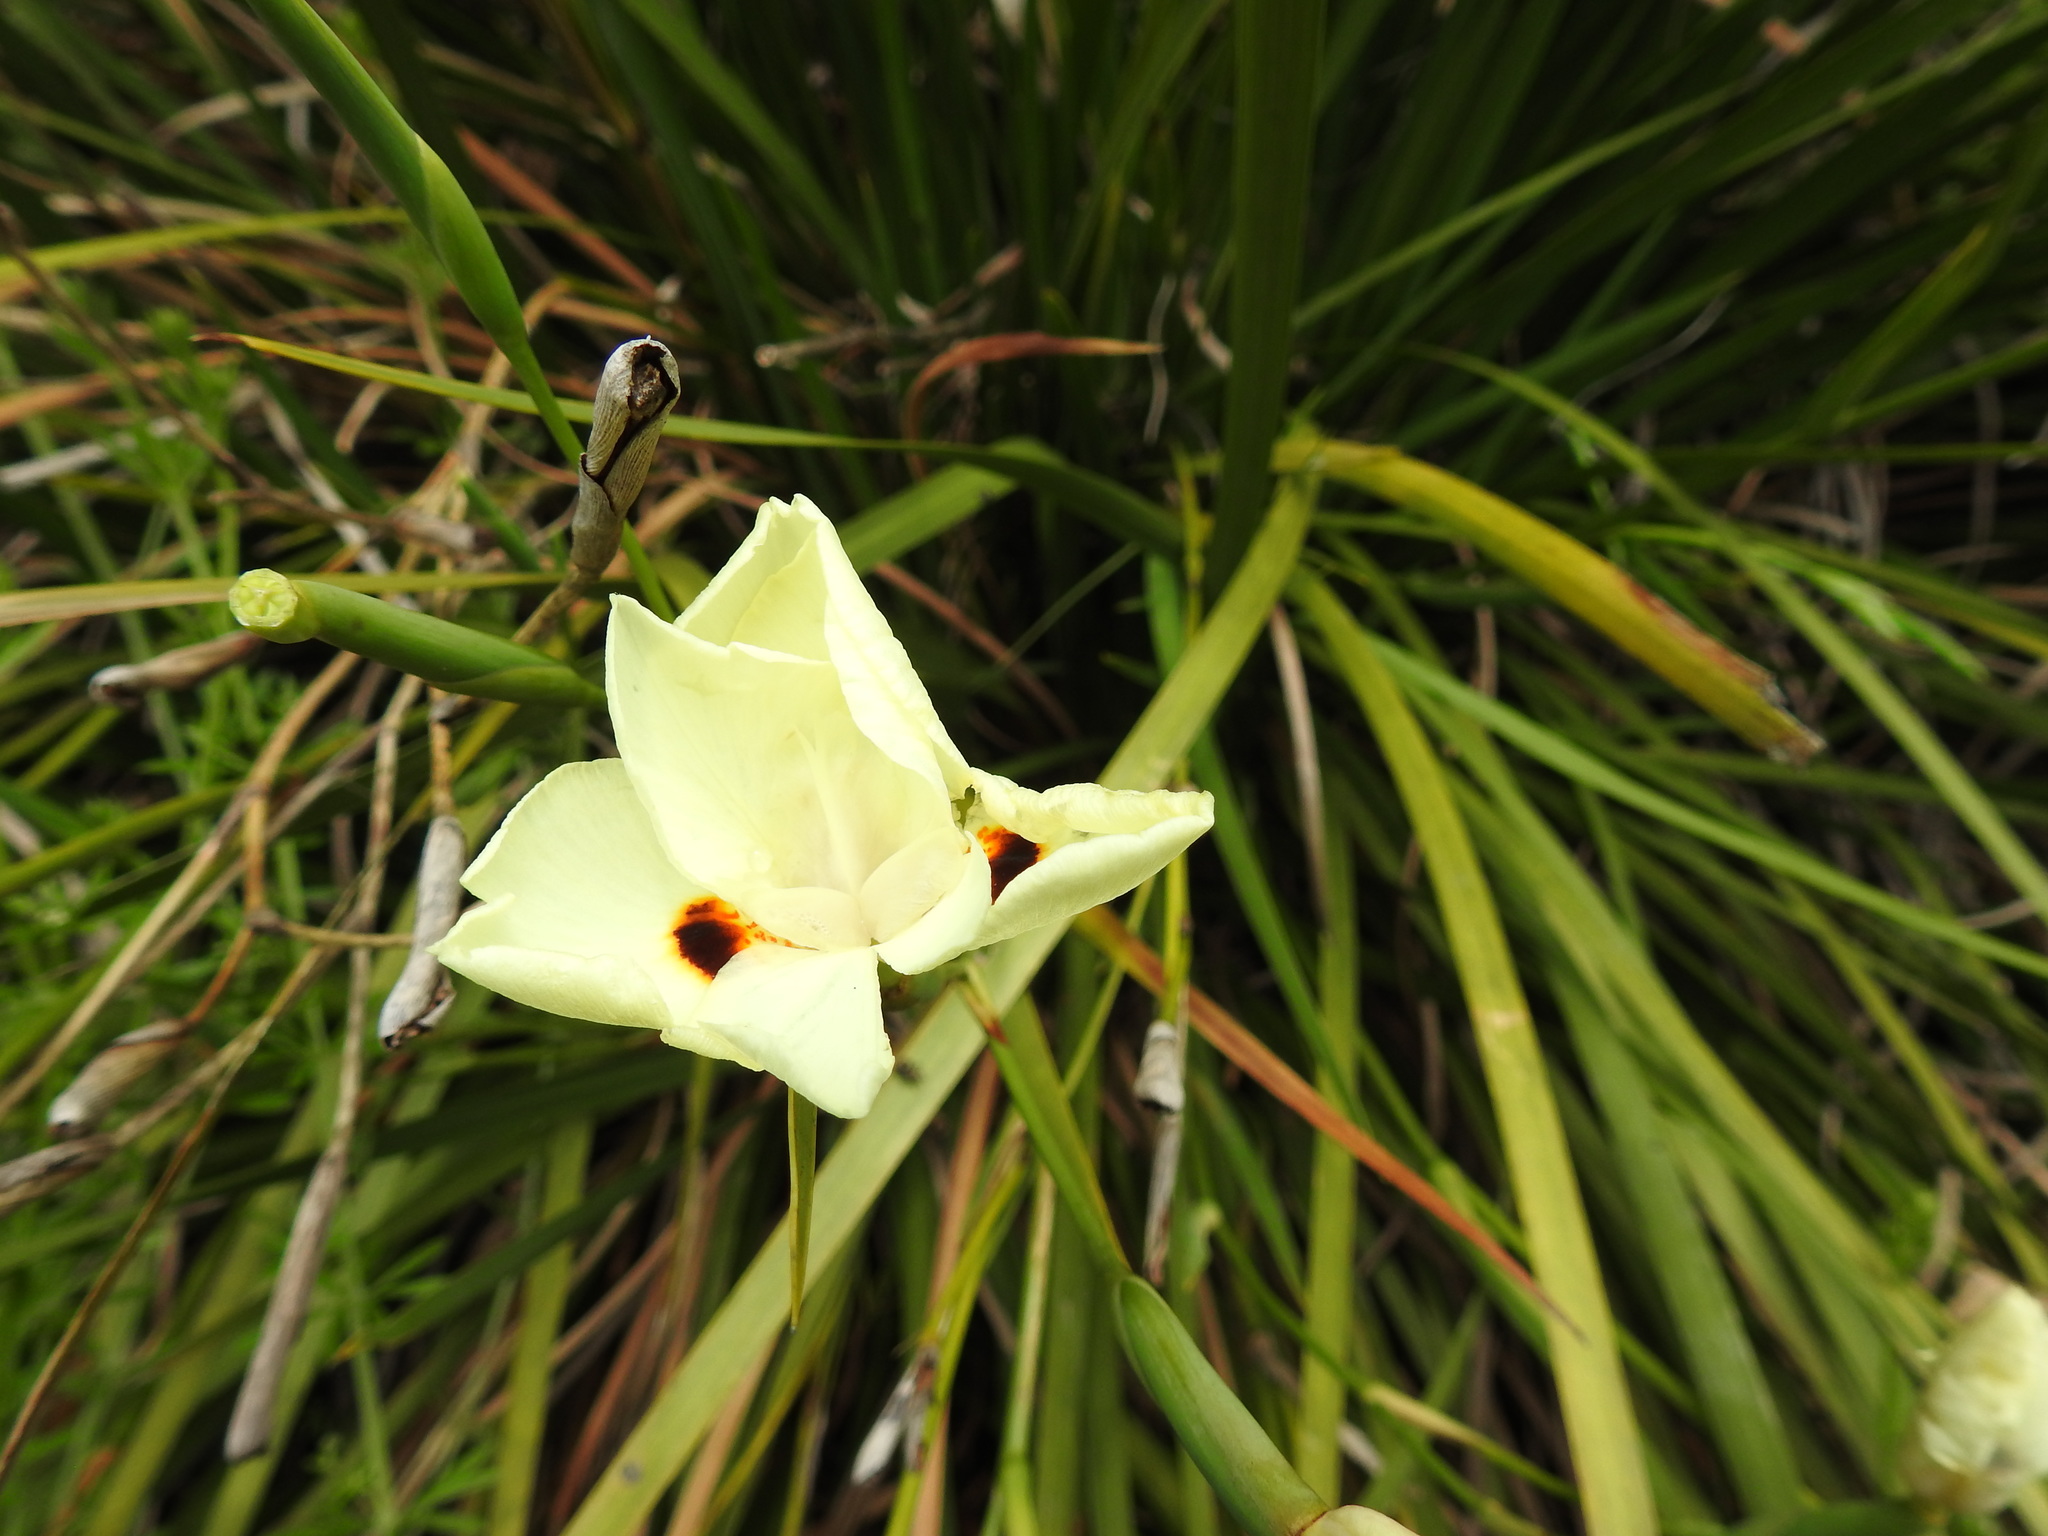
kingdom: Plantae
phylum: Tracheophyta
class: Liliopsida
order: Asparagales
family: Iridaceae
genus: Dietes
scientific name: Dietes bicolor
